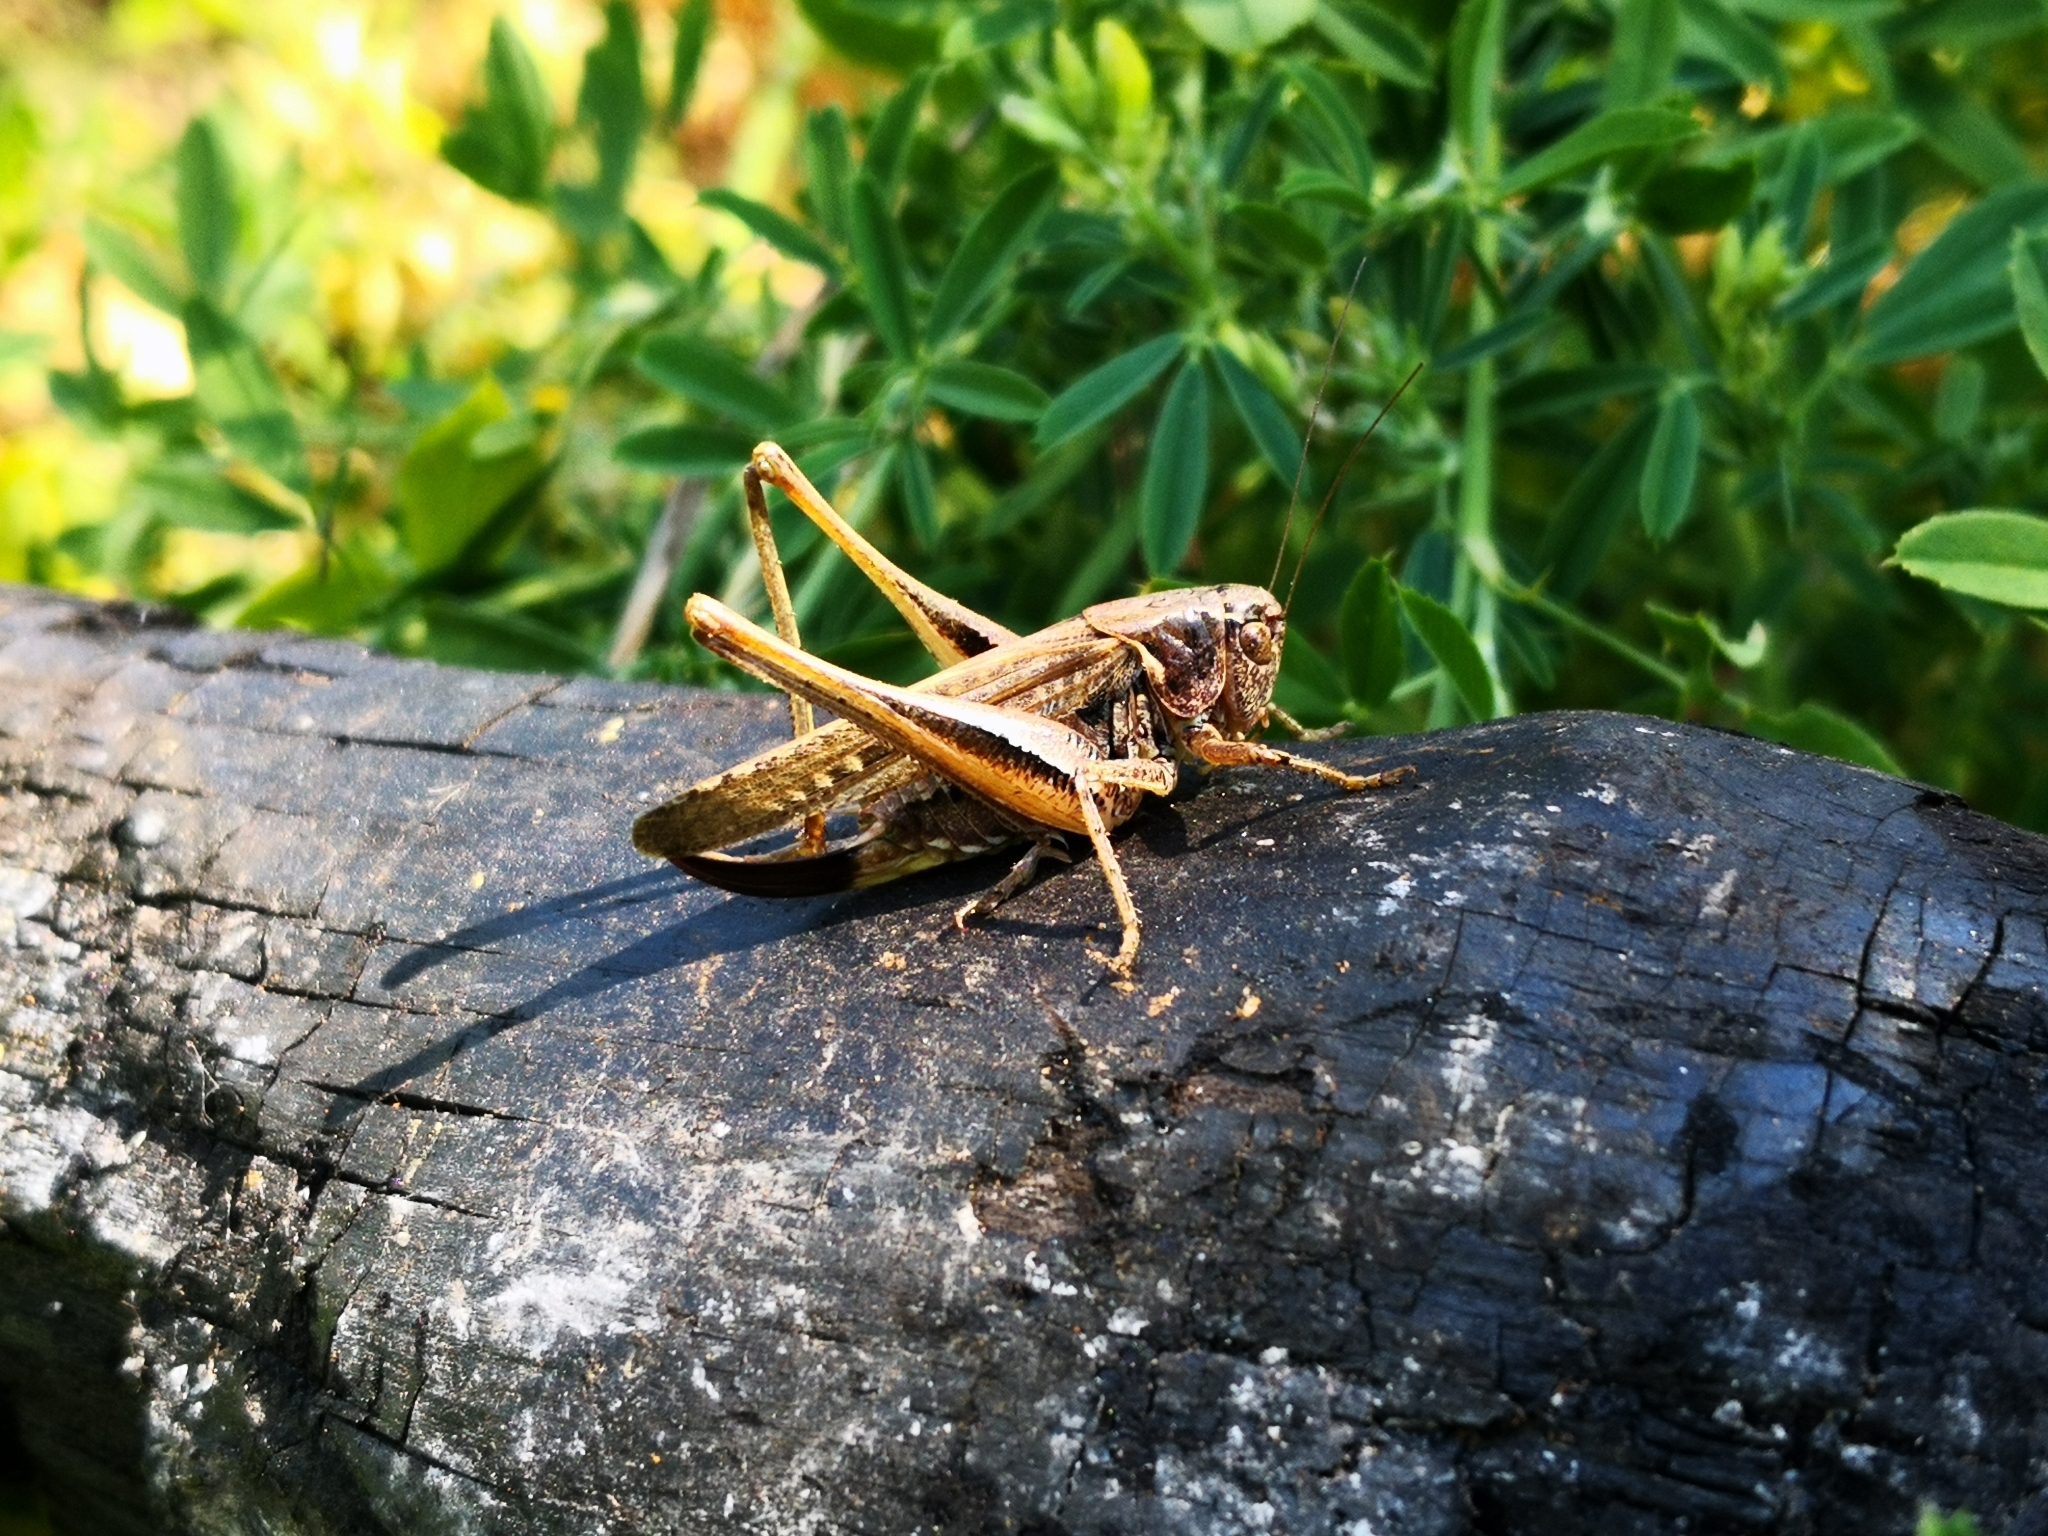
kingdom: Animalia
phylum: Arthropoda
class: Insecta
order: Orthoptera
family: Tettigoniidae
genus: Platycleis
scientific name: Platycleis albopunctata
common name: Grey bush-cricket
